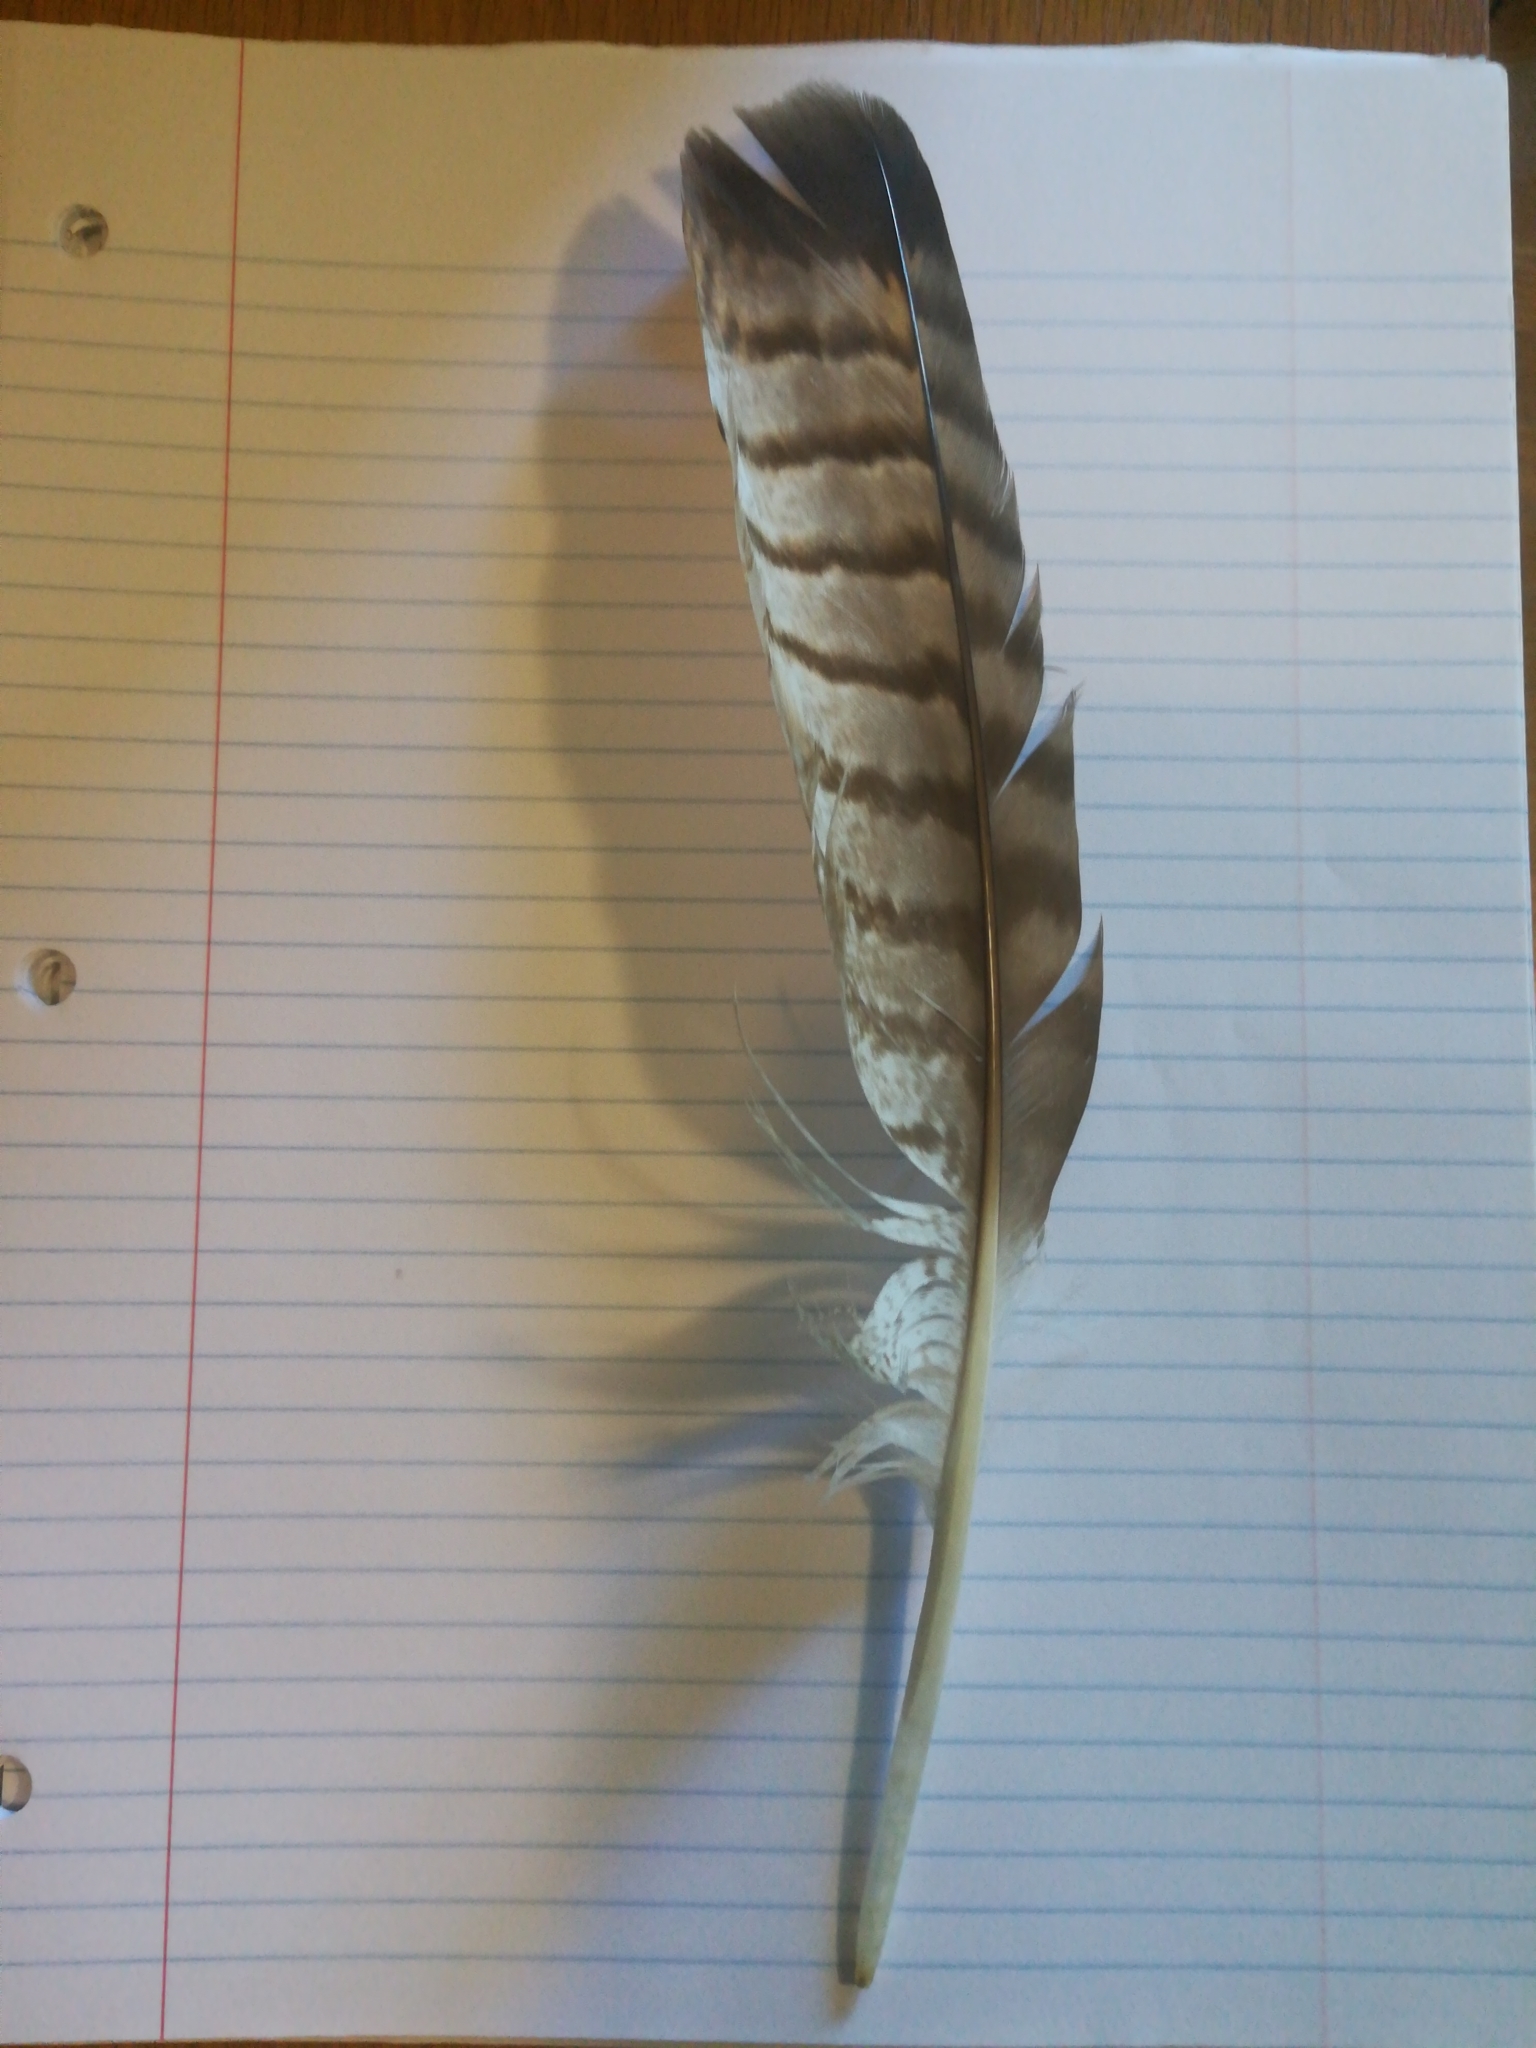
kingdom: Animalia
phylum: Chordata
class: Aves
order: Accipitriformes
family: Accipitridae
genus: Buteo
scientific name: Buteo jamaicensis
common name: Red-tailed hawk
